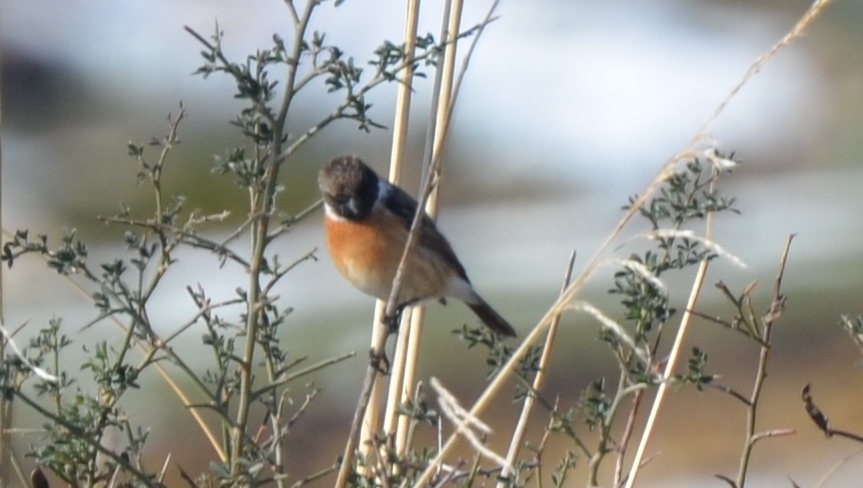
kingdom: Animalia
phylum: Chordata
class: Aves
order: Passeriformes
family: Muscicapidae
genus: Saxicola
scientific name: Saxicola rubicola
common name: European stonechat
